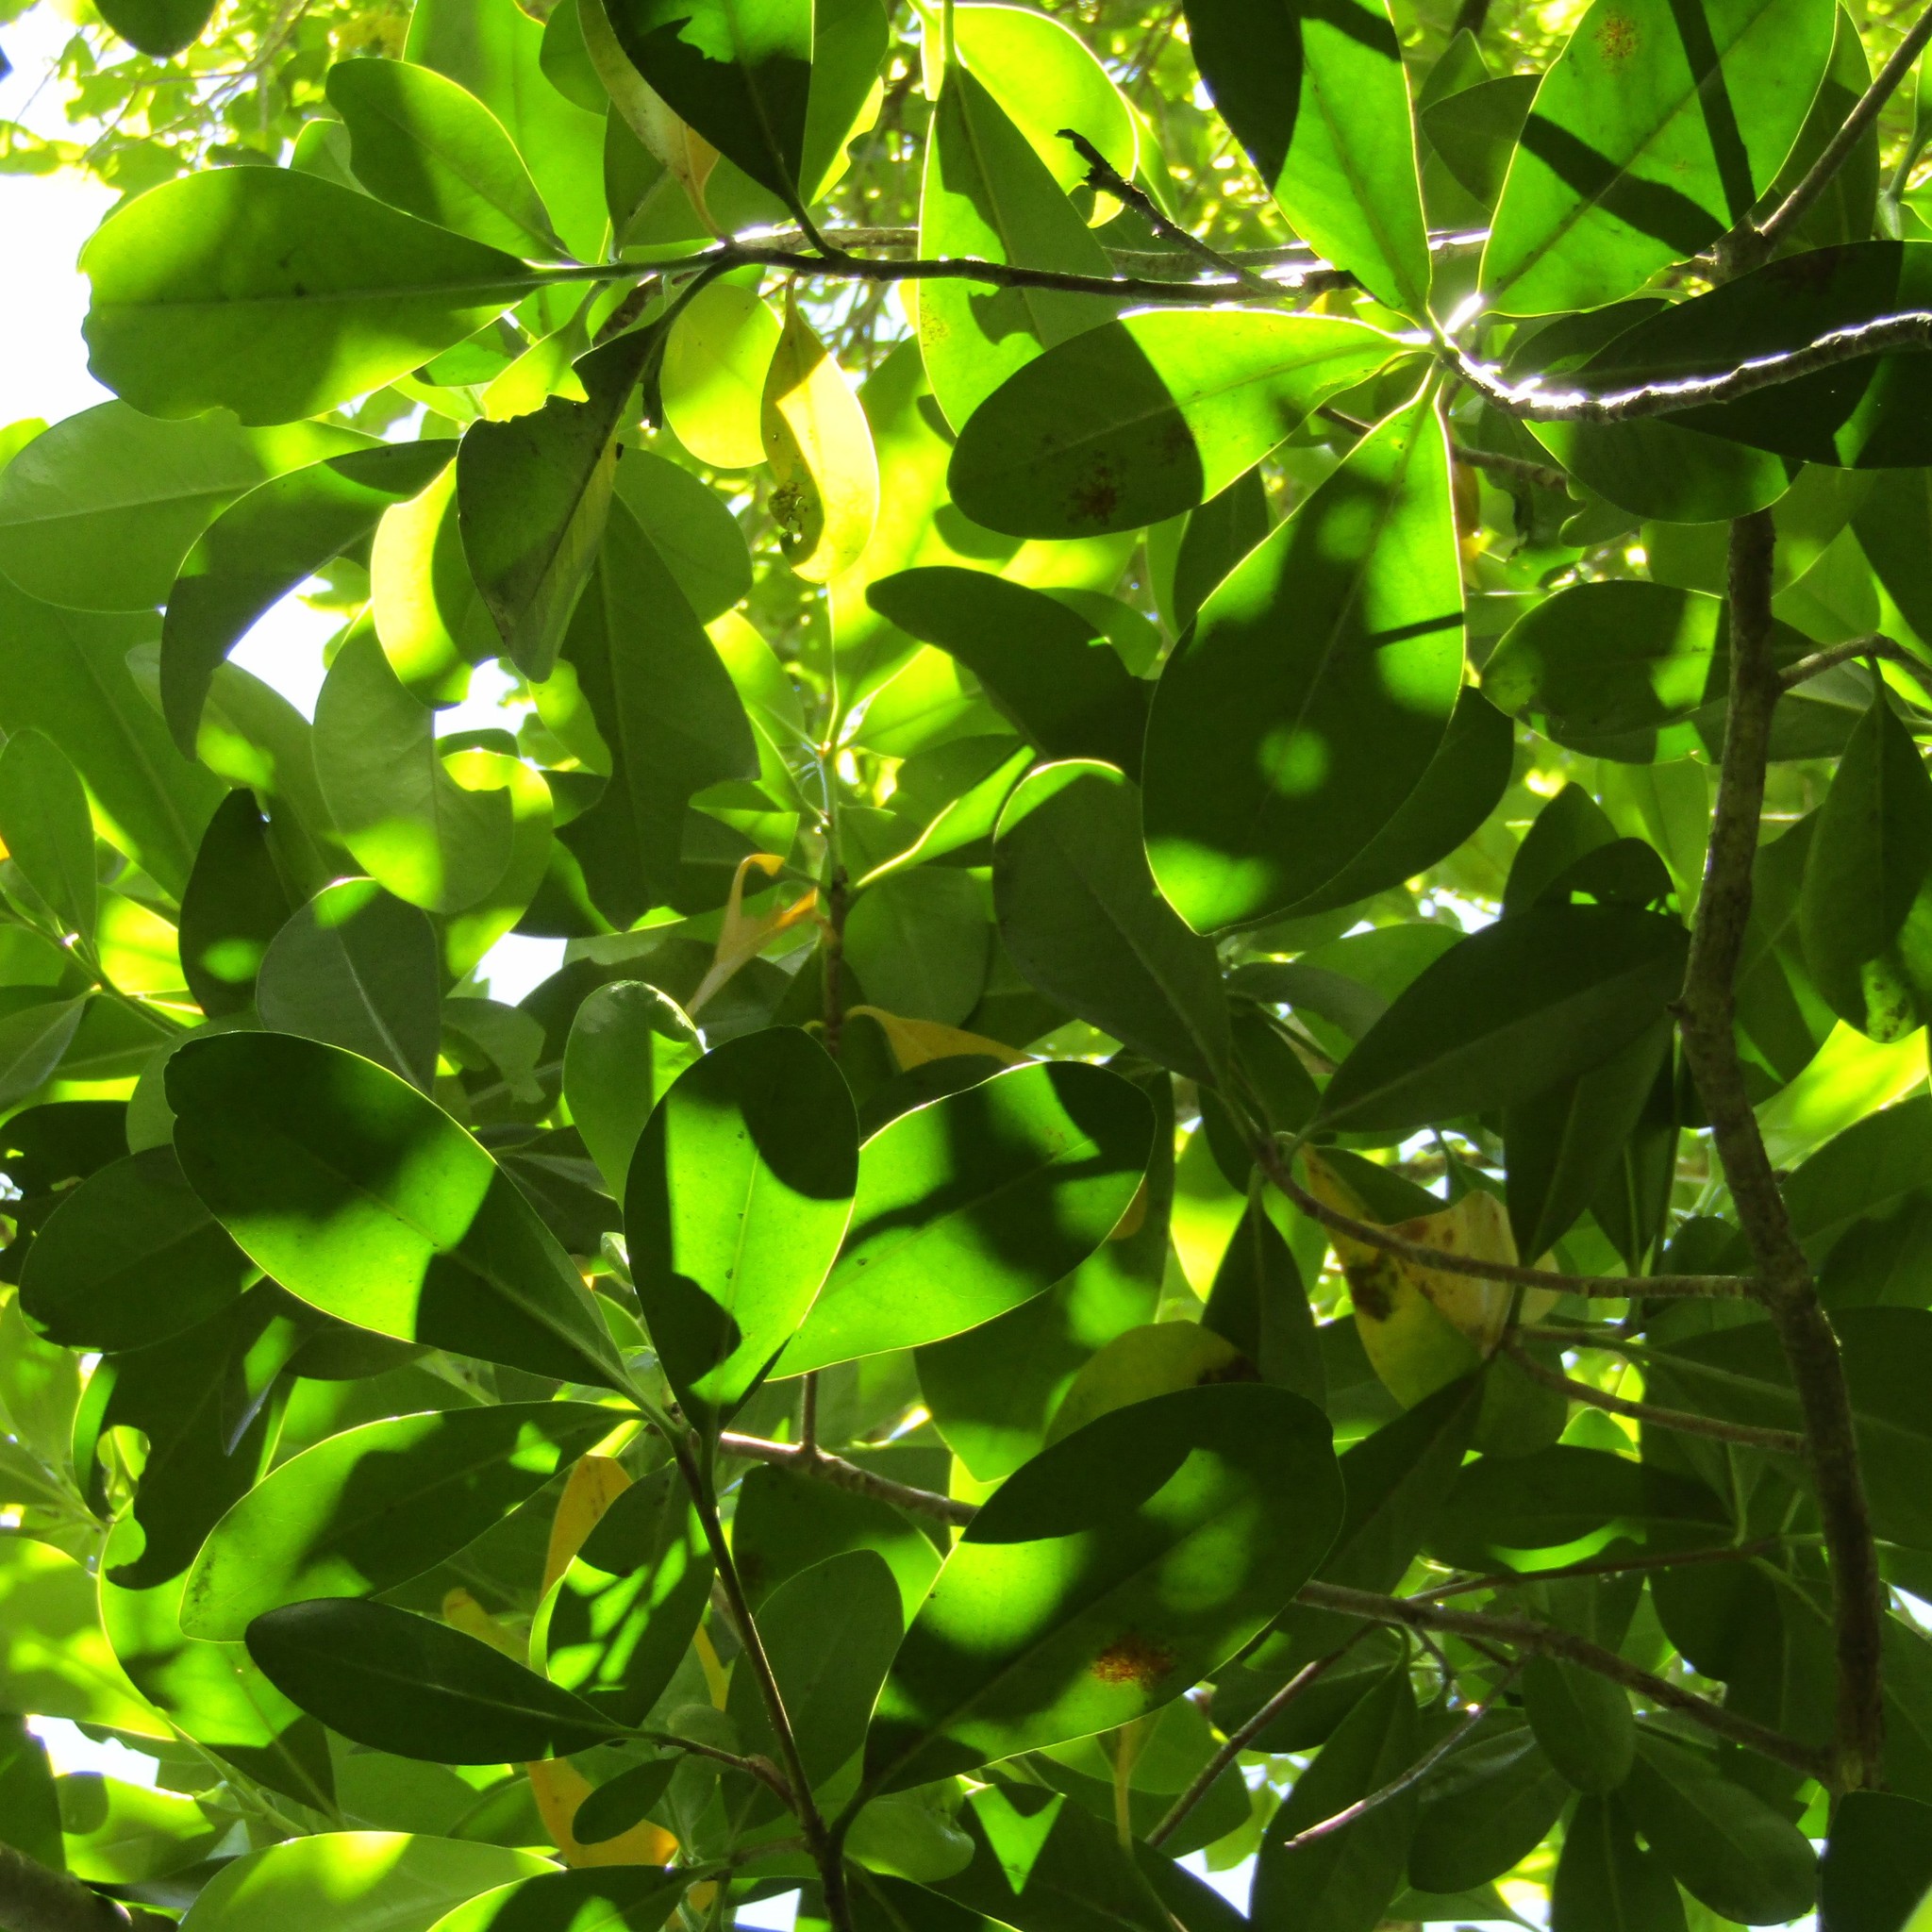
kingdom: Plantae
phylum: Tracheophyta
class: Magnoliopsida
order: Cucurbitales
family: Corynocarpaceae
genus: Corynocarpus
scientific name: Corynocarpus laevigatus
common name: New zealand laurel
